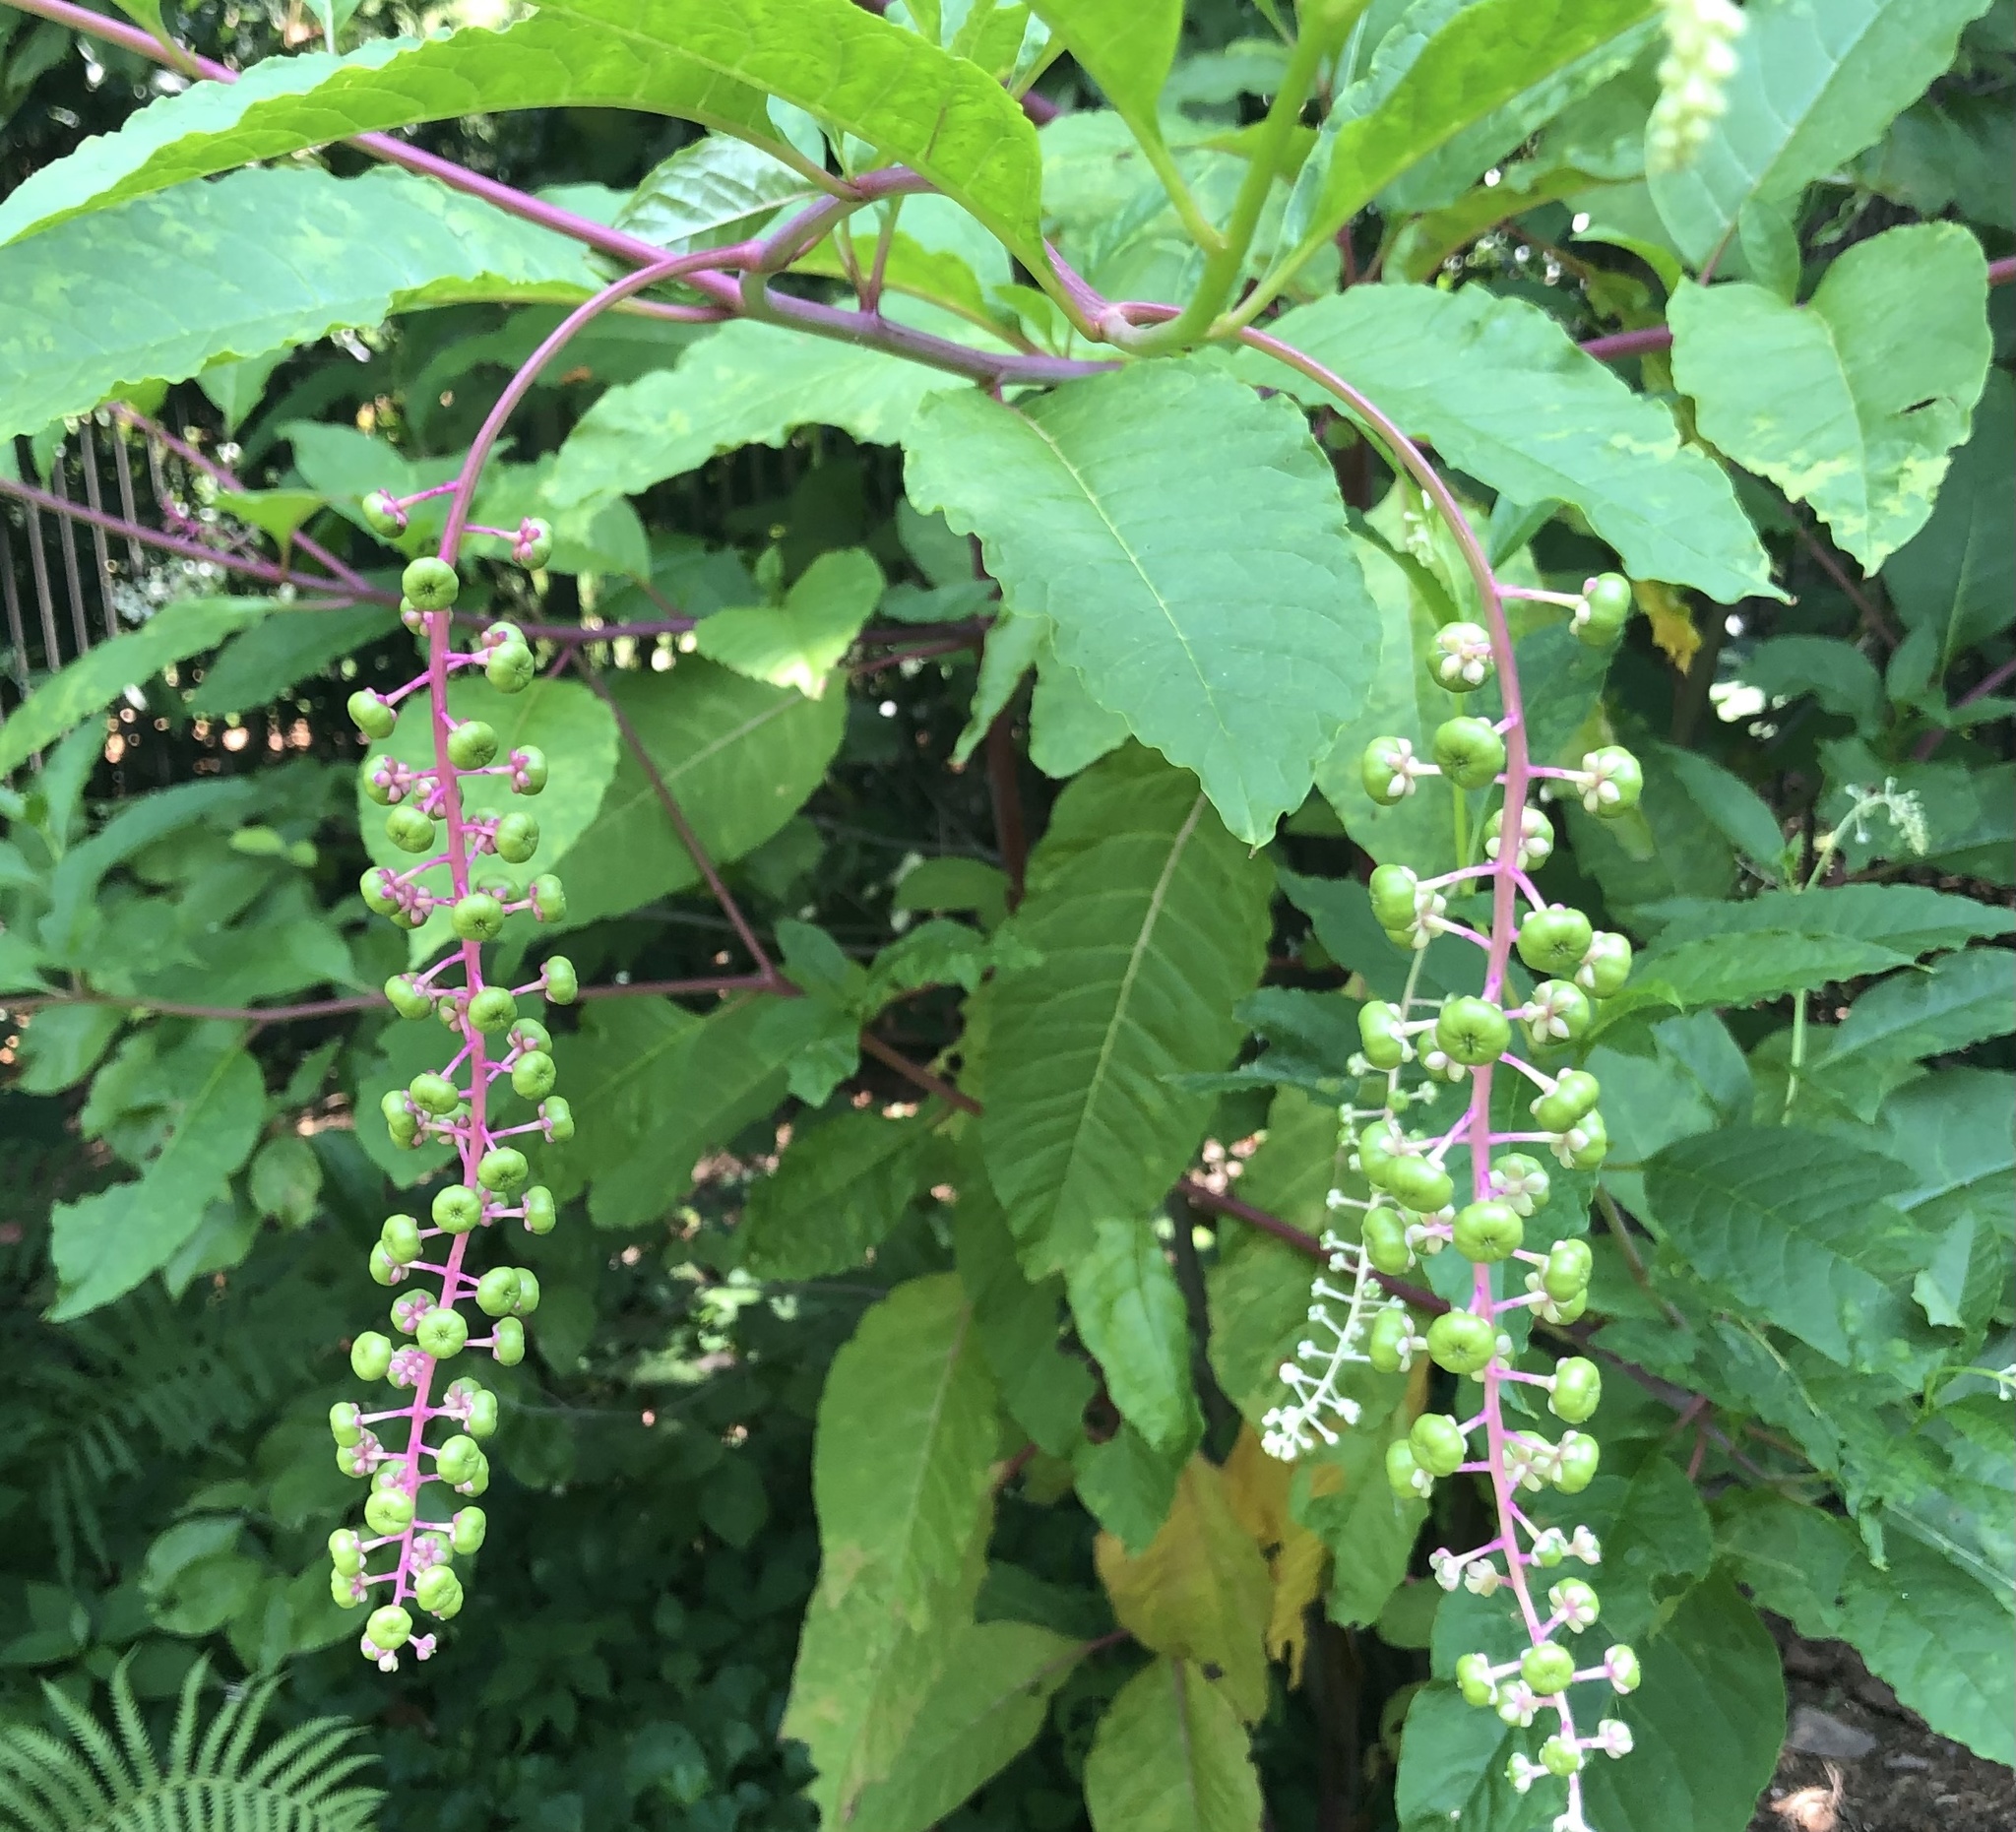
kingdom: Plantae
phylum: Tracheophyta
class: Magnoliopsida
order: Caryophyllales
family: Phytolaccaceae
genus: Phytolacca
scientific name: Phytolacca americana
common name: American pokeweed
